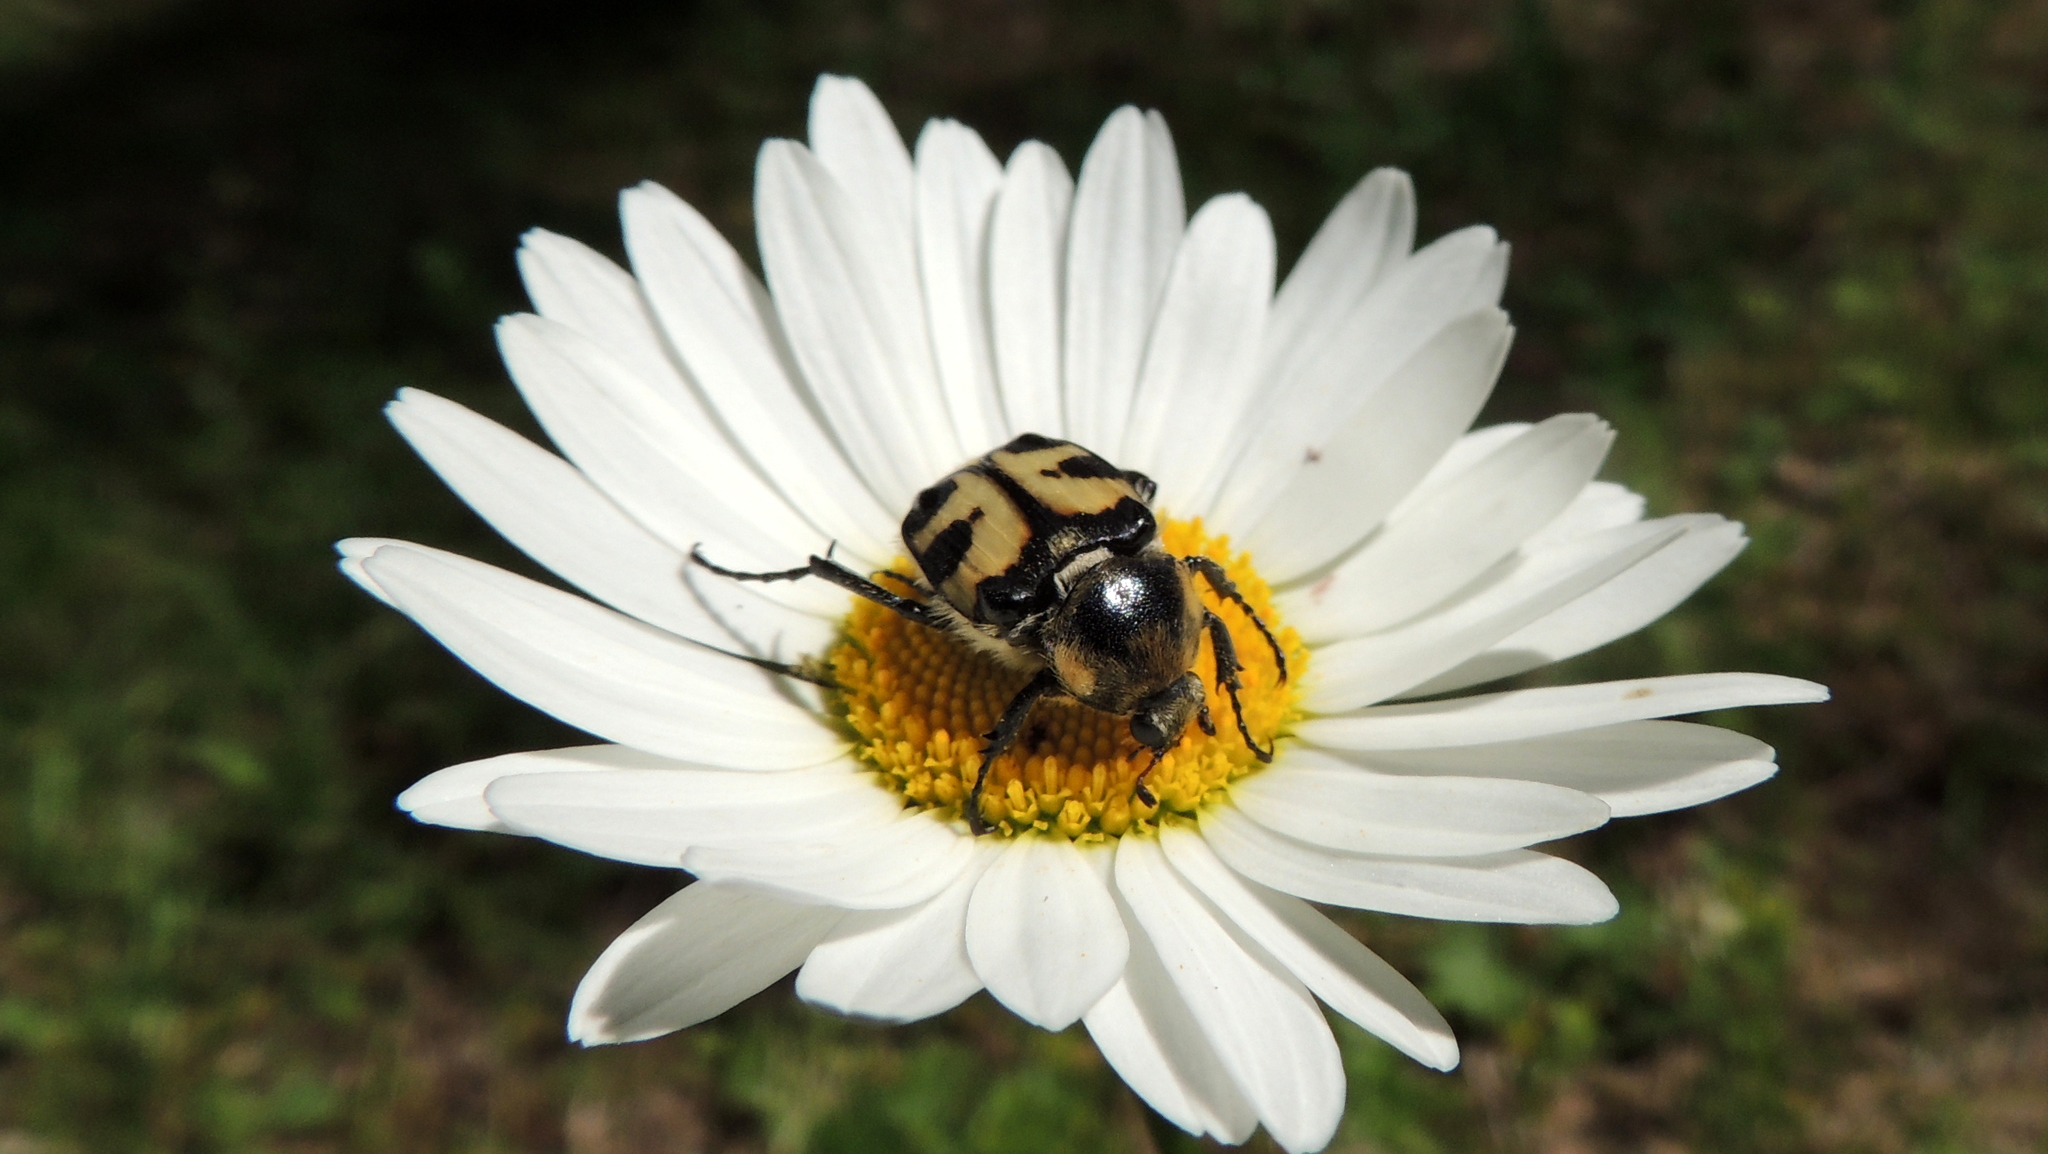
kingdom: Animalia
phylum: Arthropoda
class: Insecta
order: Coleoptera
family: Scarabaeidae
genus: Trichius
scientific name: Trichius fasciatus
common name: Bee beetle
